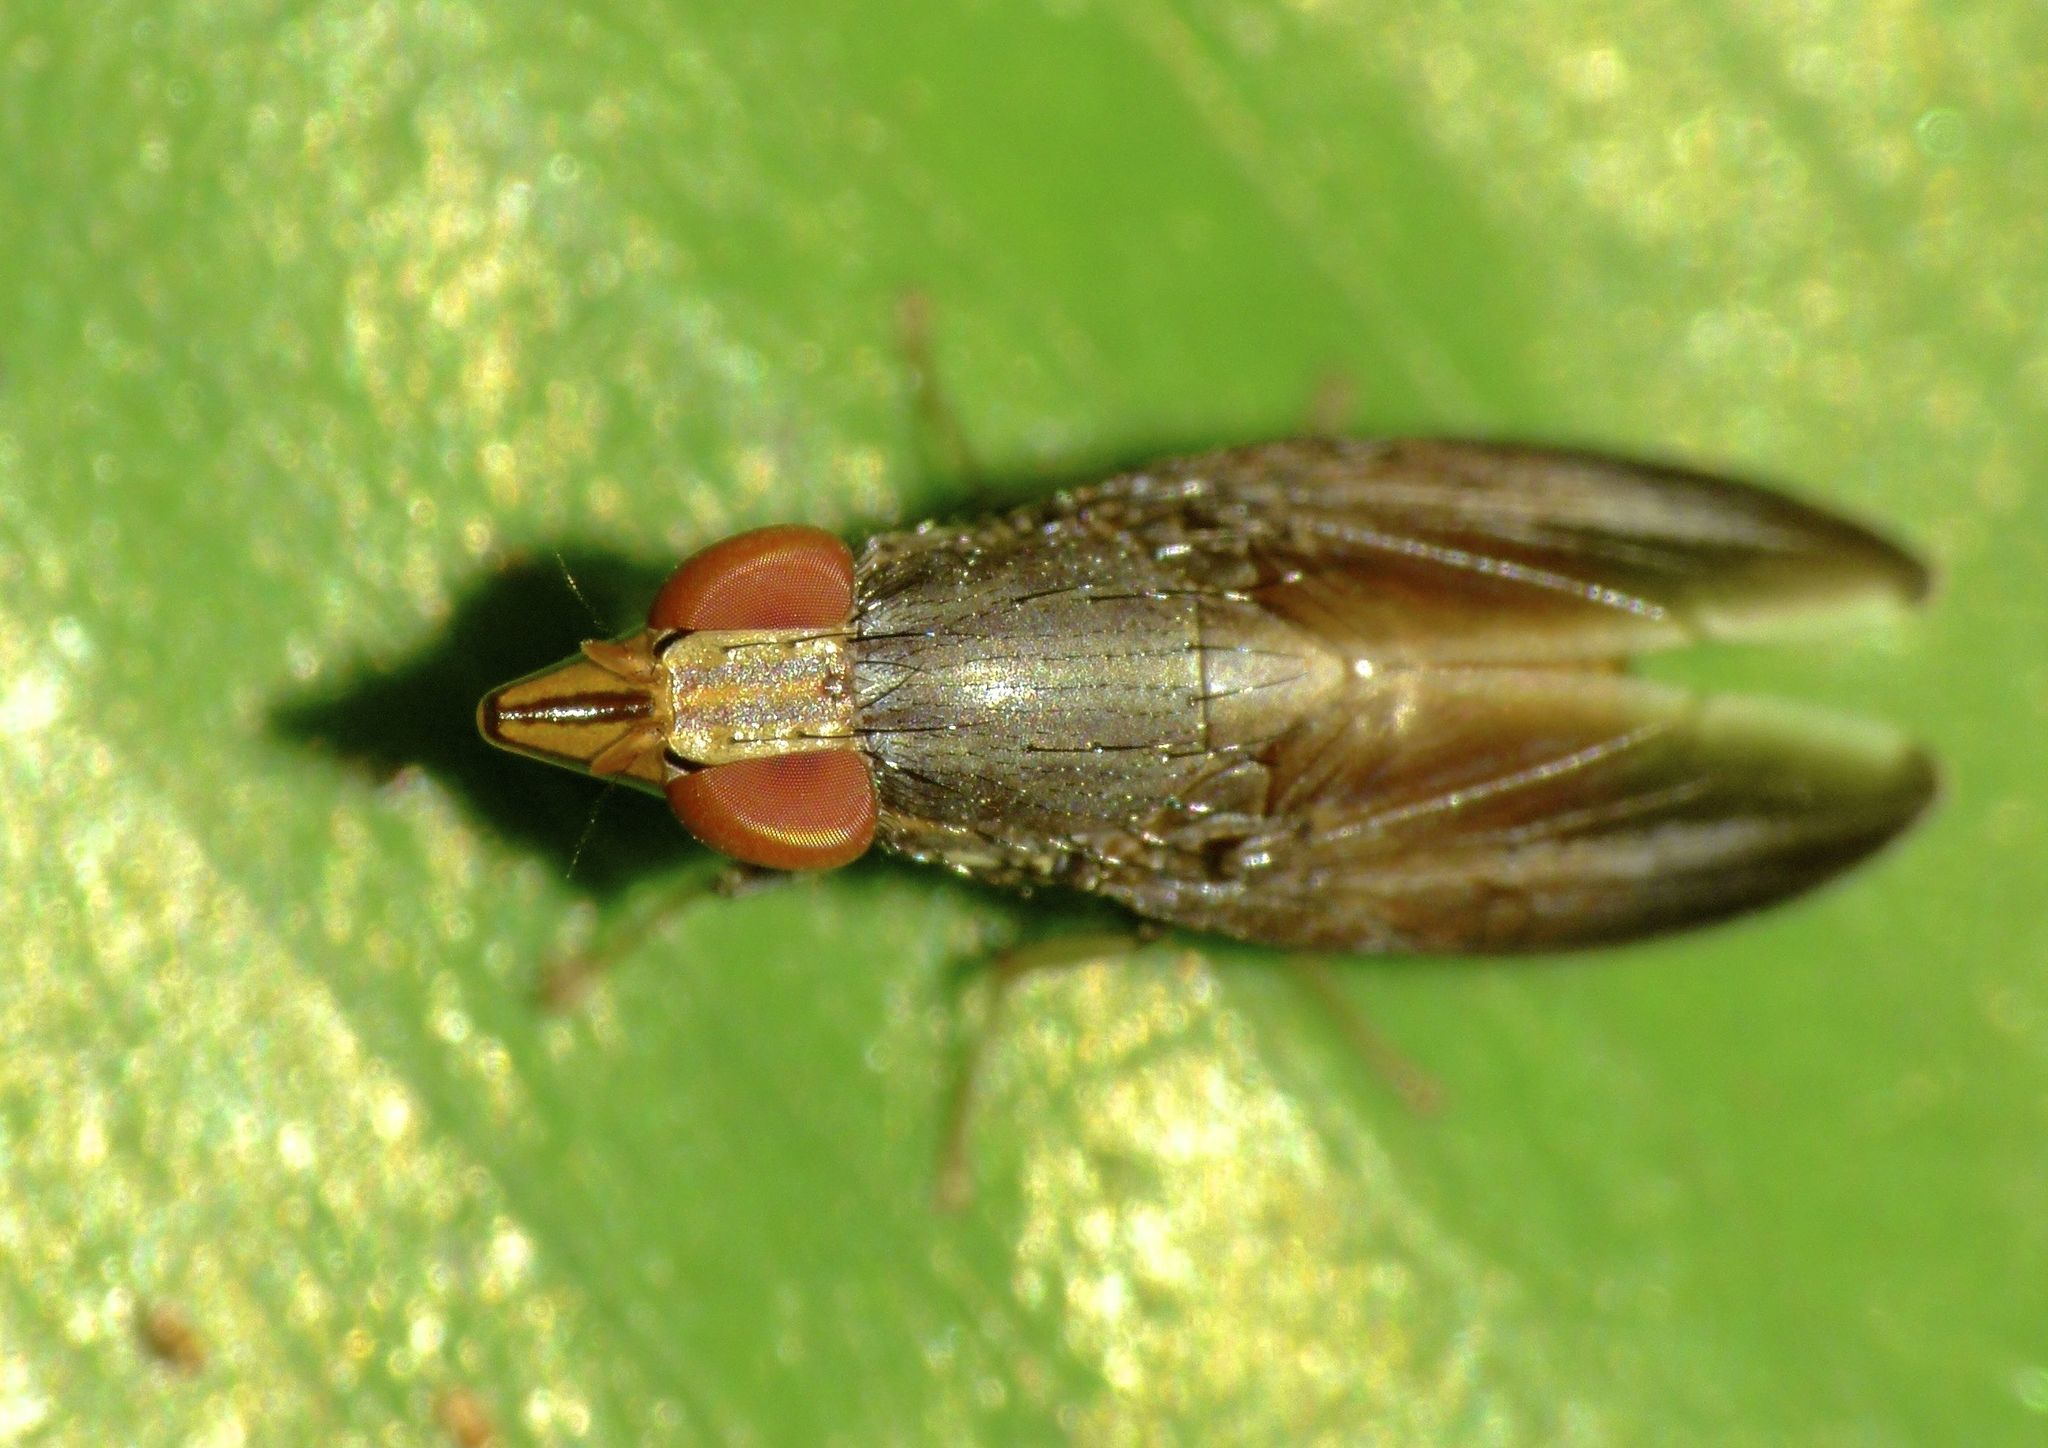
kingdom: Animalia
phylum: Arthropoda
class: Insecta
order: Diptera
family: Lauxaniidae
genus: Cephaloconus
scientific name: Cephaloconus tenebrosus
